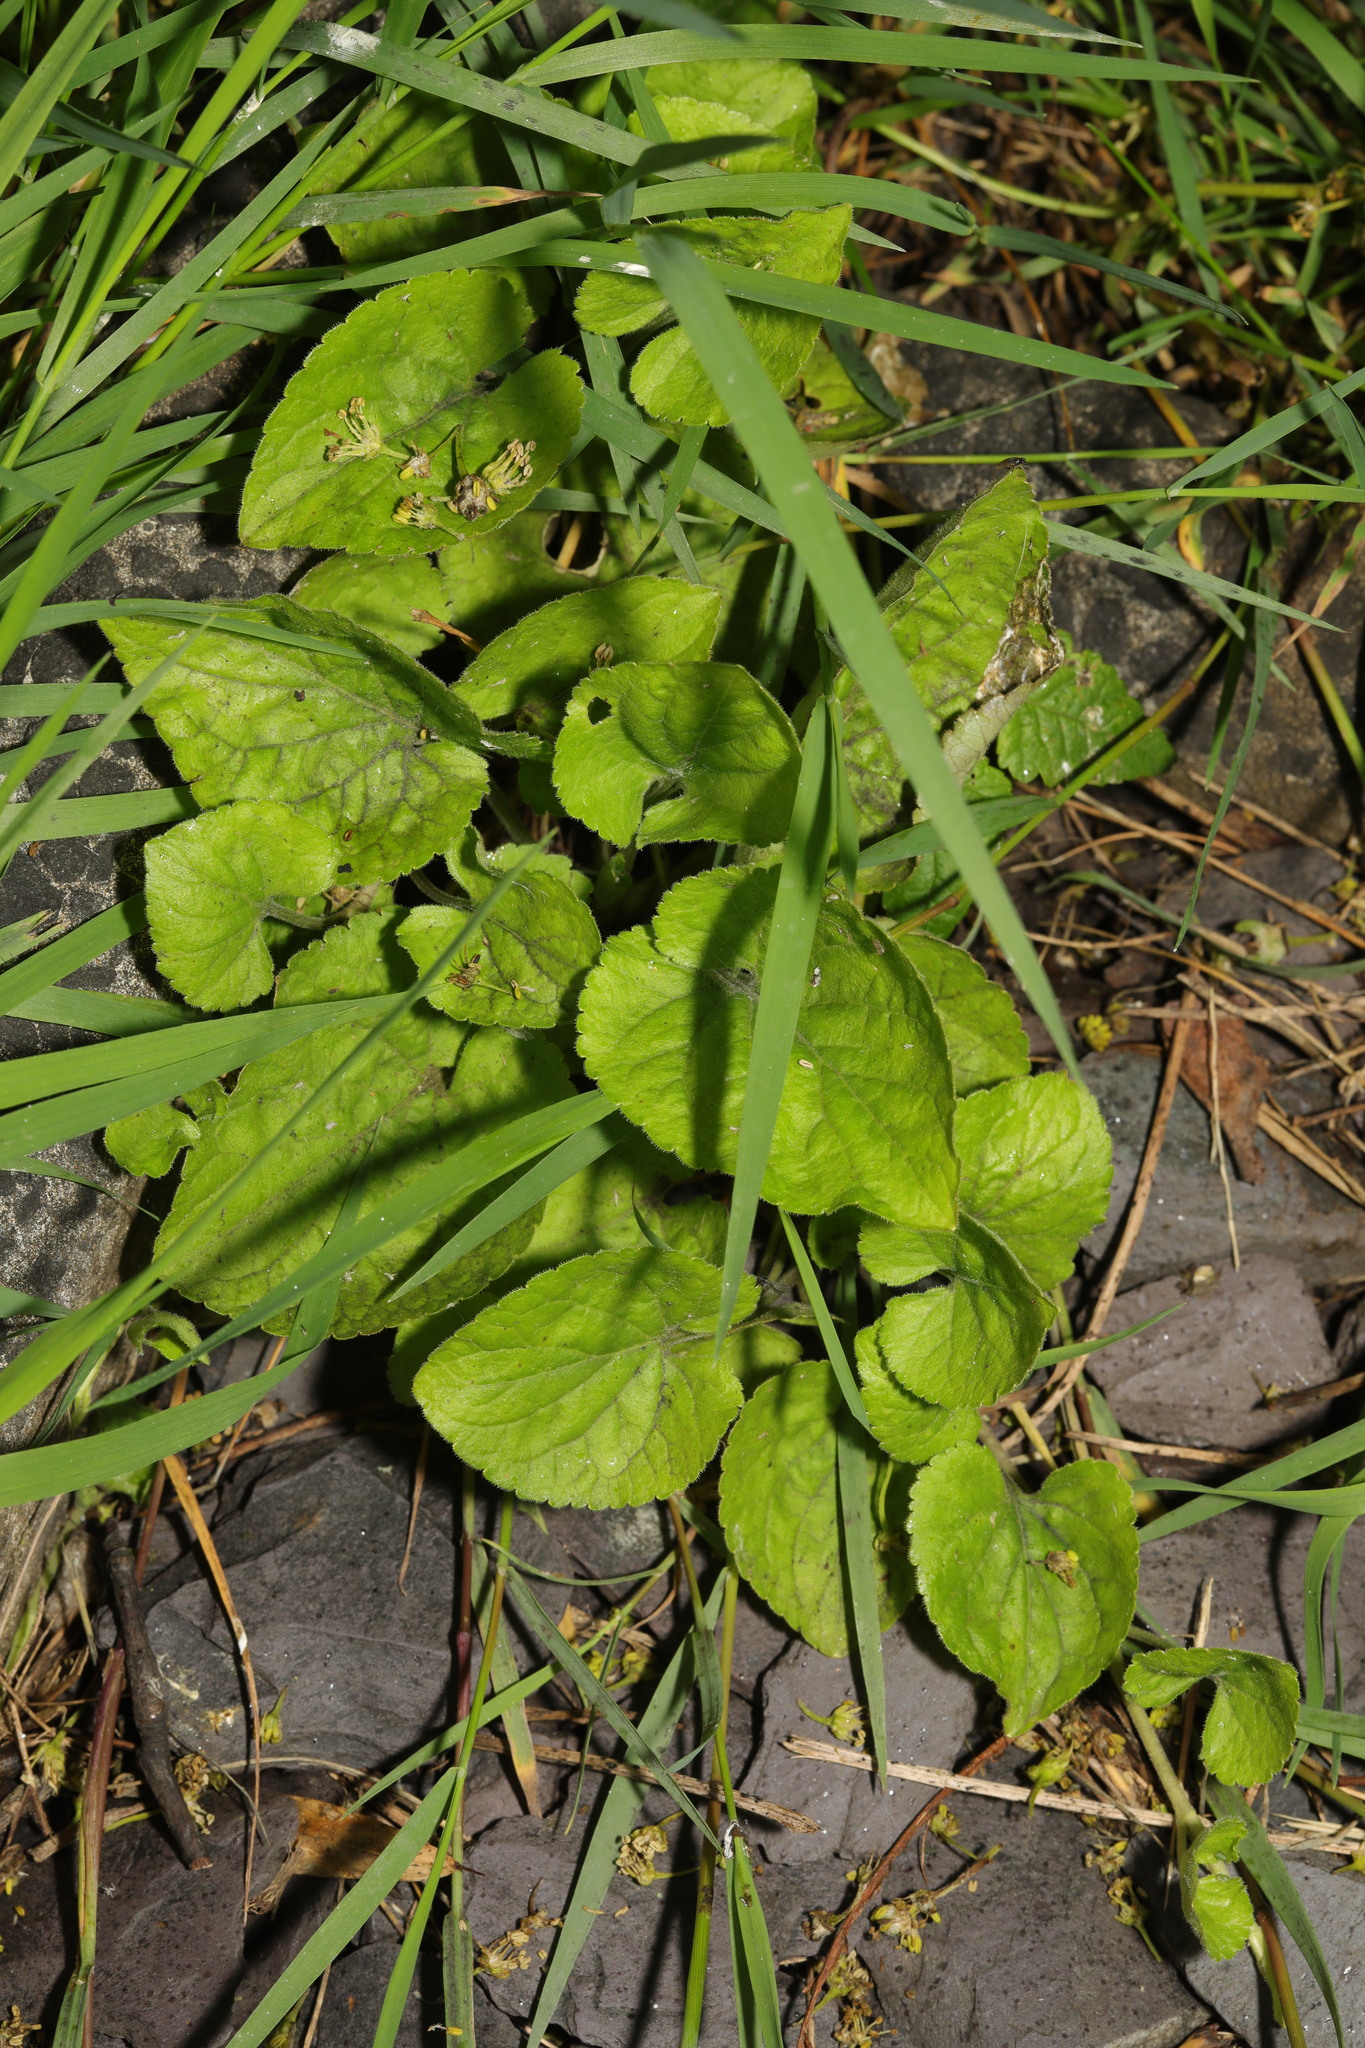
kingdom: Plantae
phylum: Tracheophyta
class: Magnoliopsida
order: Malpighiales
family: Violaceae
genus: Viola
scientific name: Viola odorata
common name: Sweet violet
